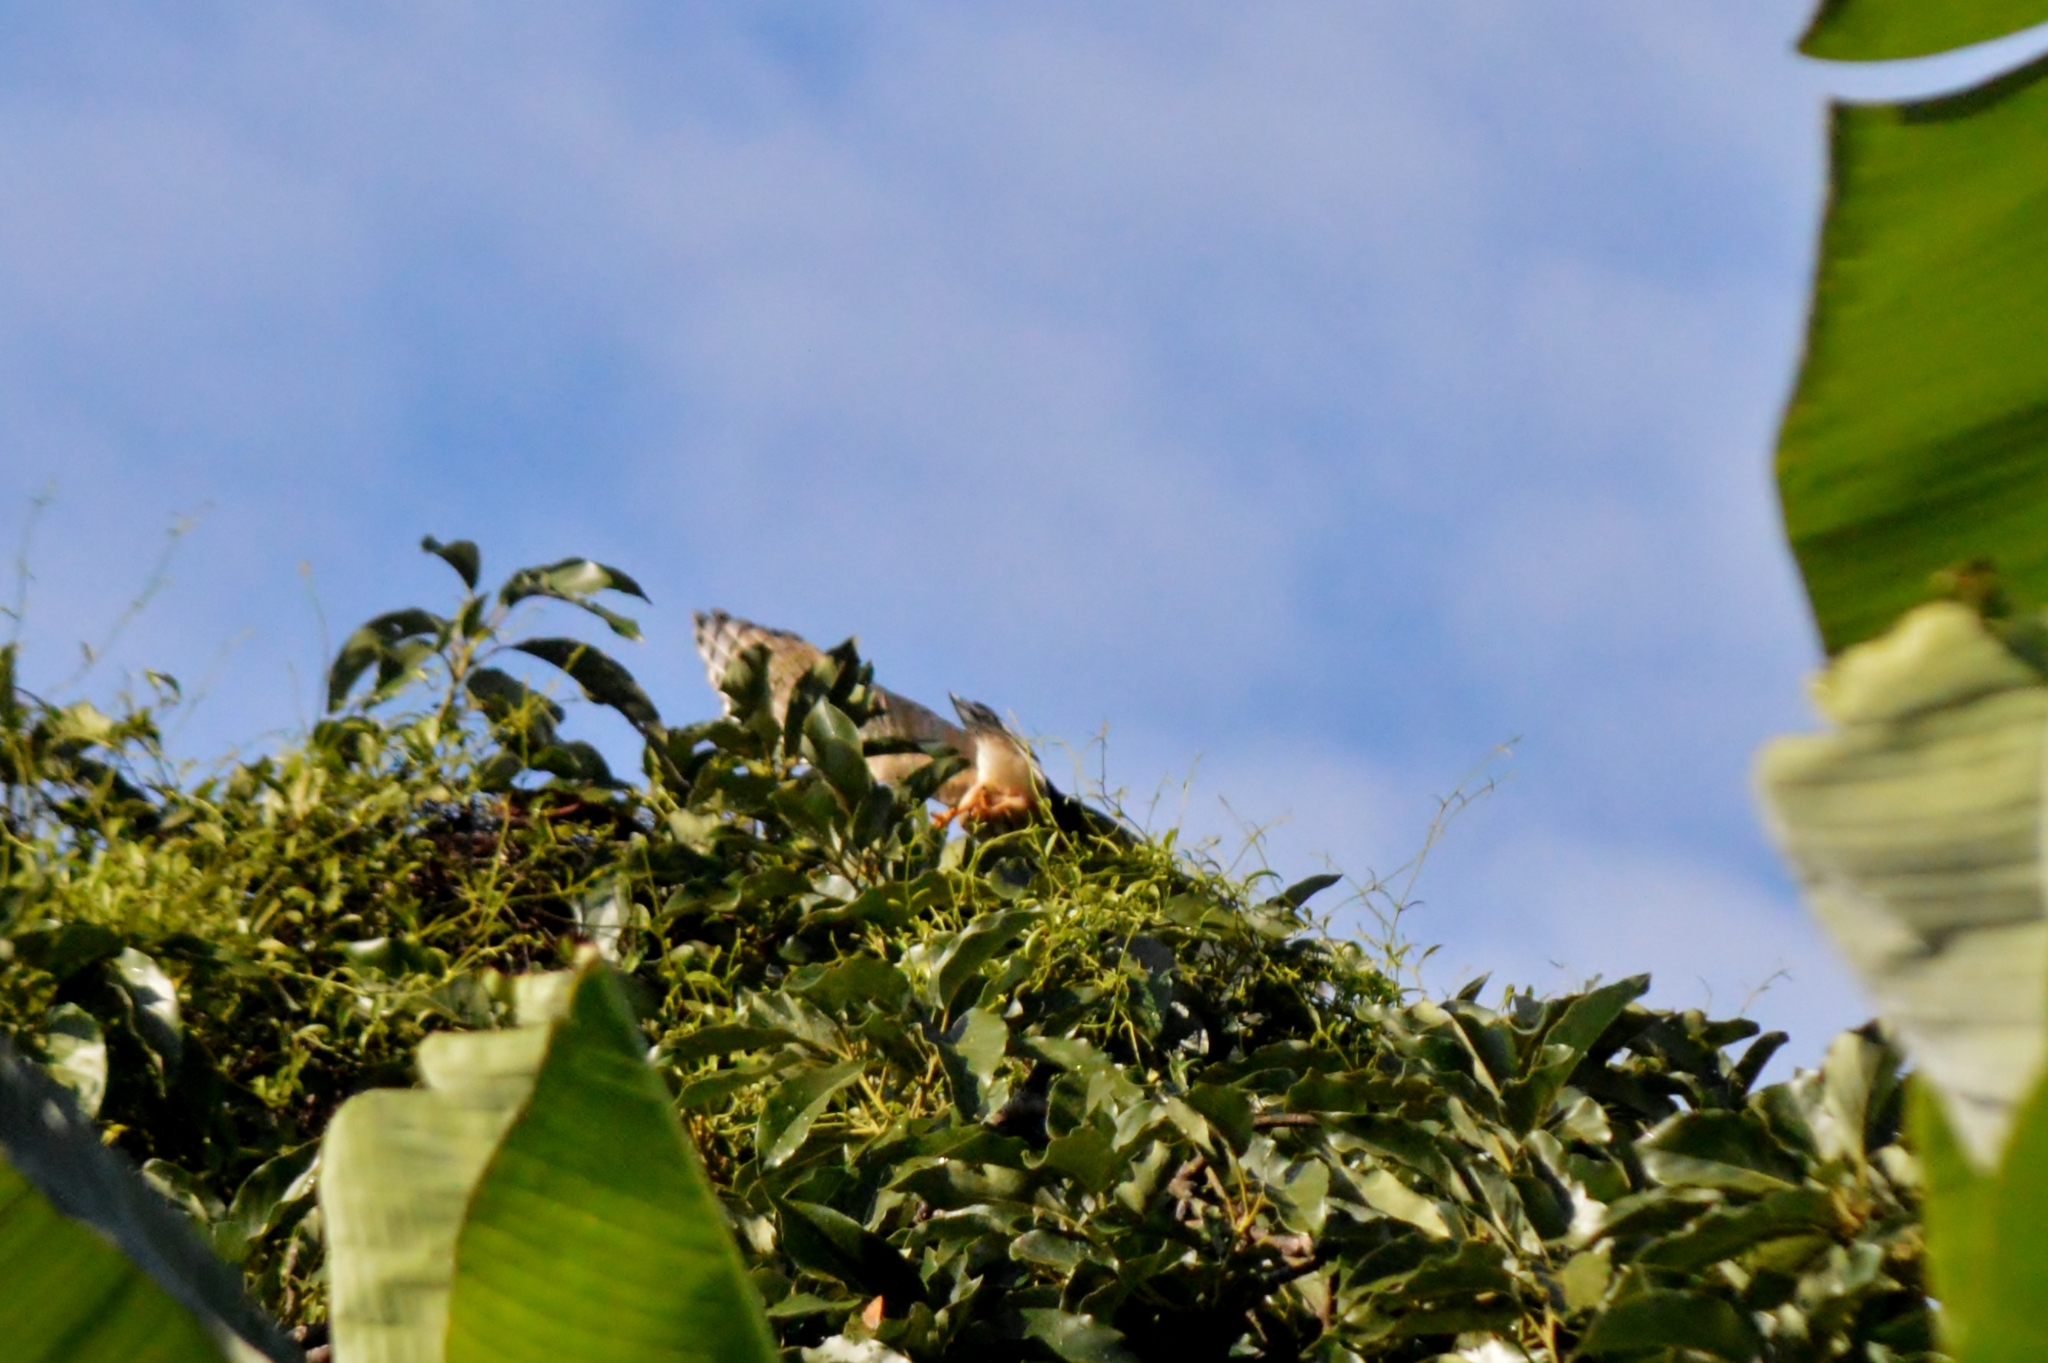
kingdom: Animalia
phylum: Chordata
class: Aves
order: Accipitriformes
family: Accipitridae
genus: Rupornis
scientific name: Rupornis magnirostris
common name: Roadside hawk
